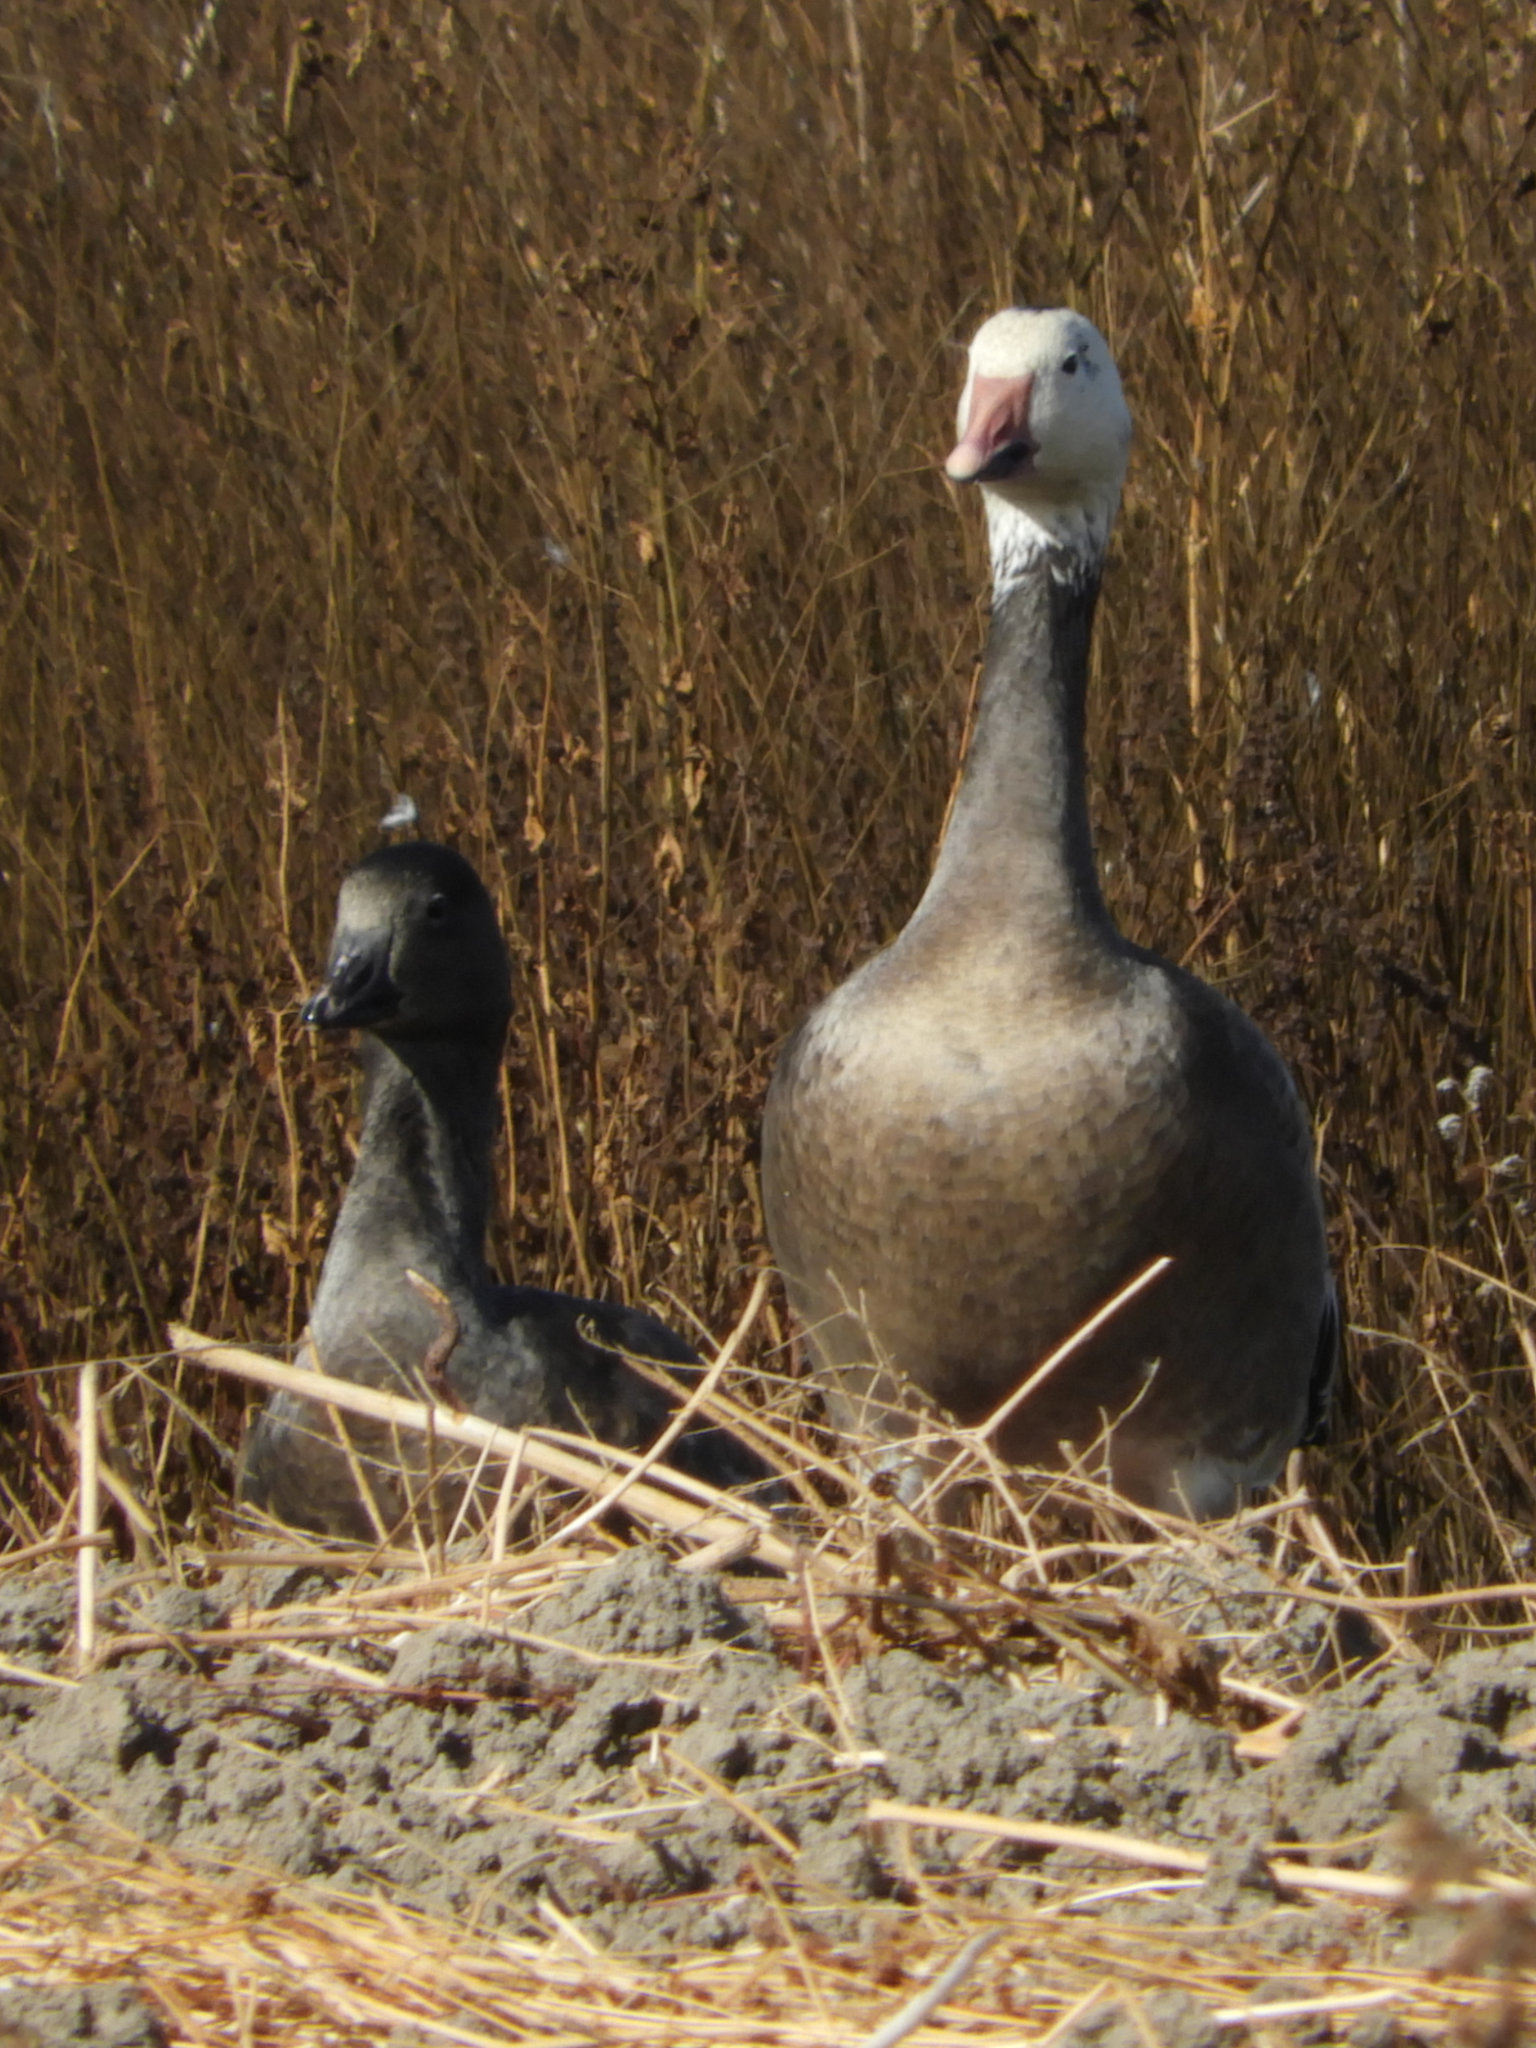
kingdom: Animalia
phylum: Chordata
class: Aves
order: Anseriformes
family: Anatidae
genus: Anser
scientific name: Anser caerulescens
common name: Snow goose
